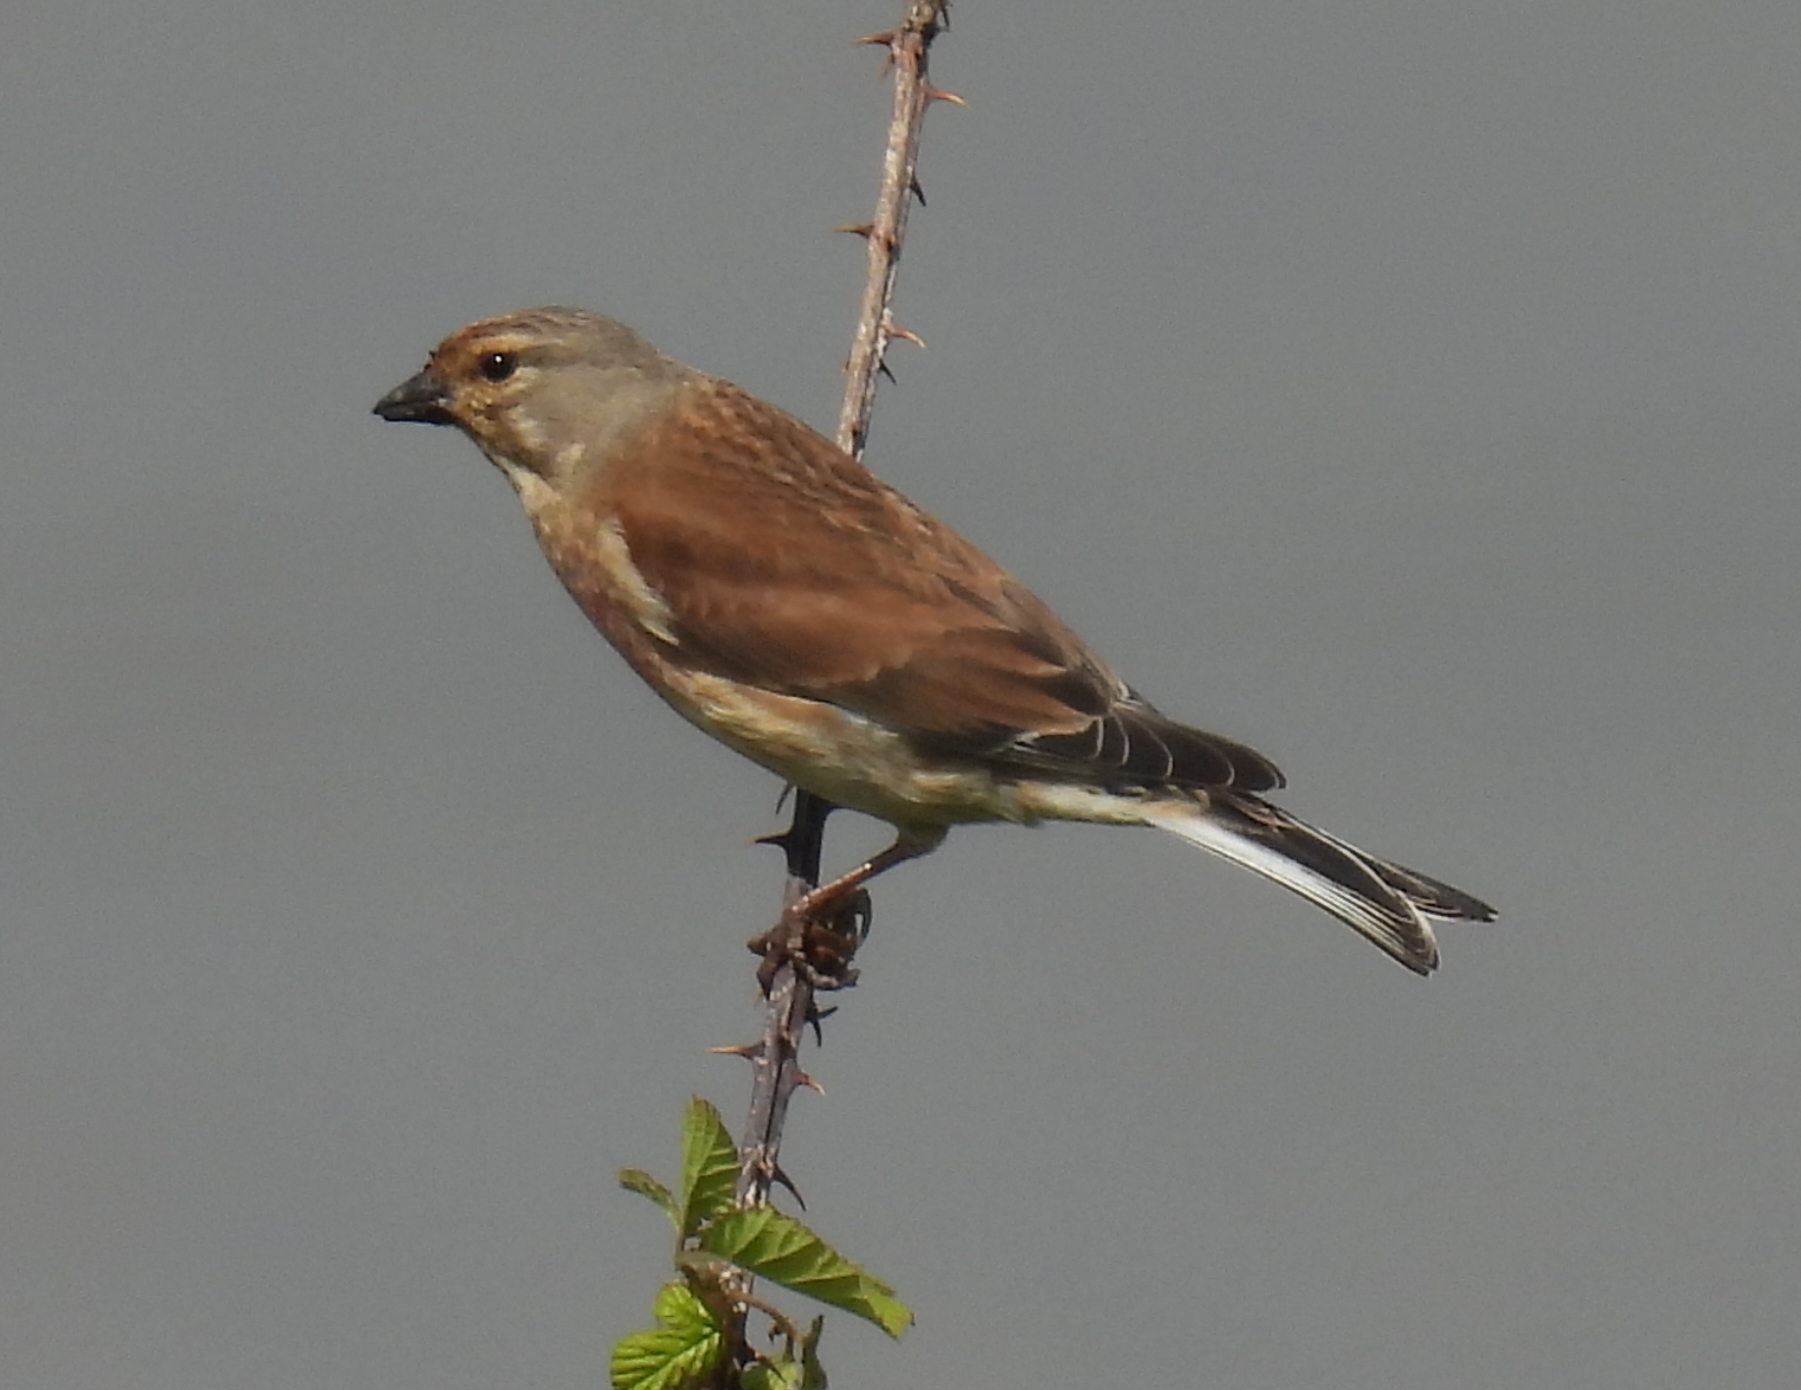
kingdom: Animalia
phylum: Chordata
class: Aves
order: Passeriformes
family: Fringillidae
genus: Linaria
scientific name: Linaria cannabina
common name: Common linnet
